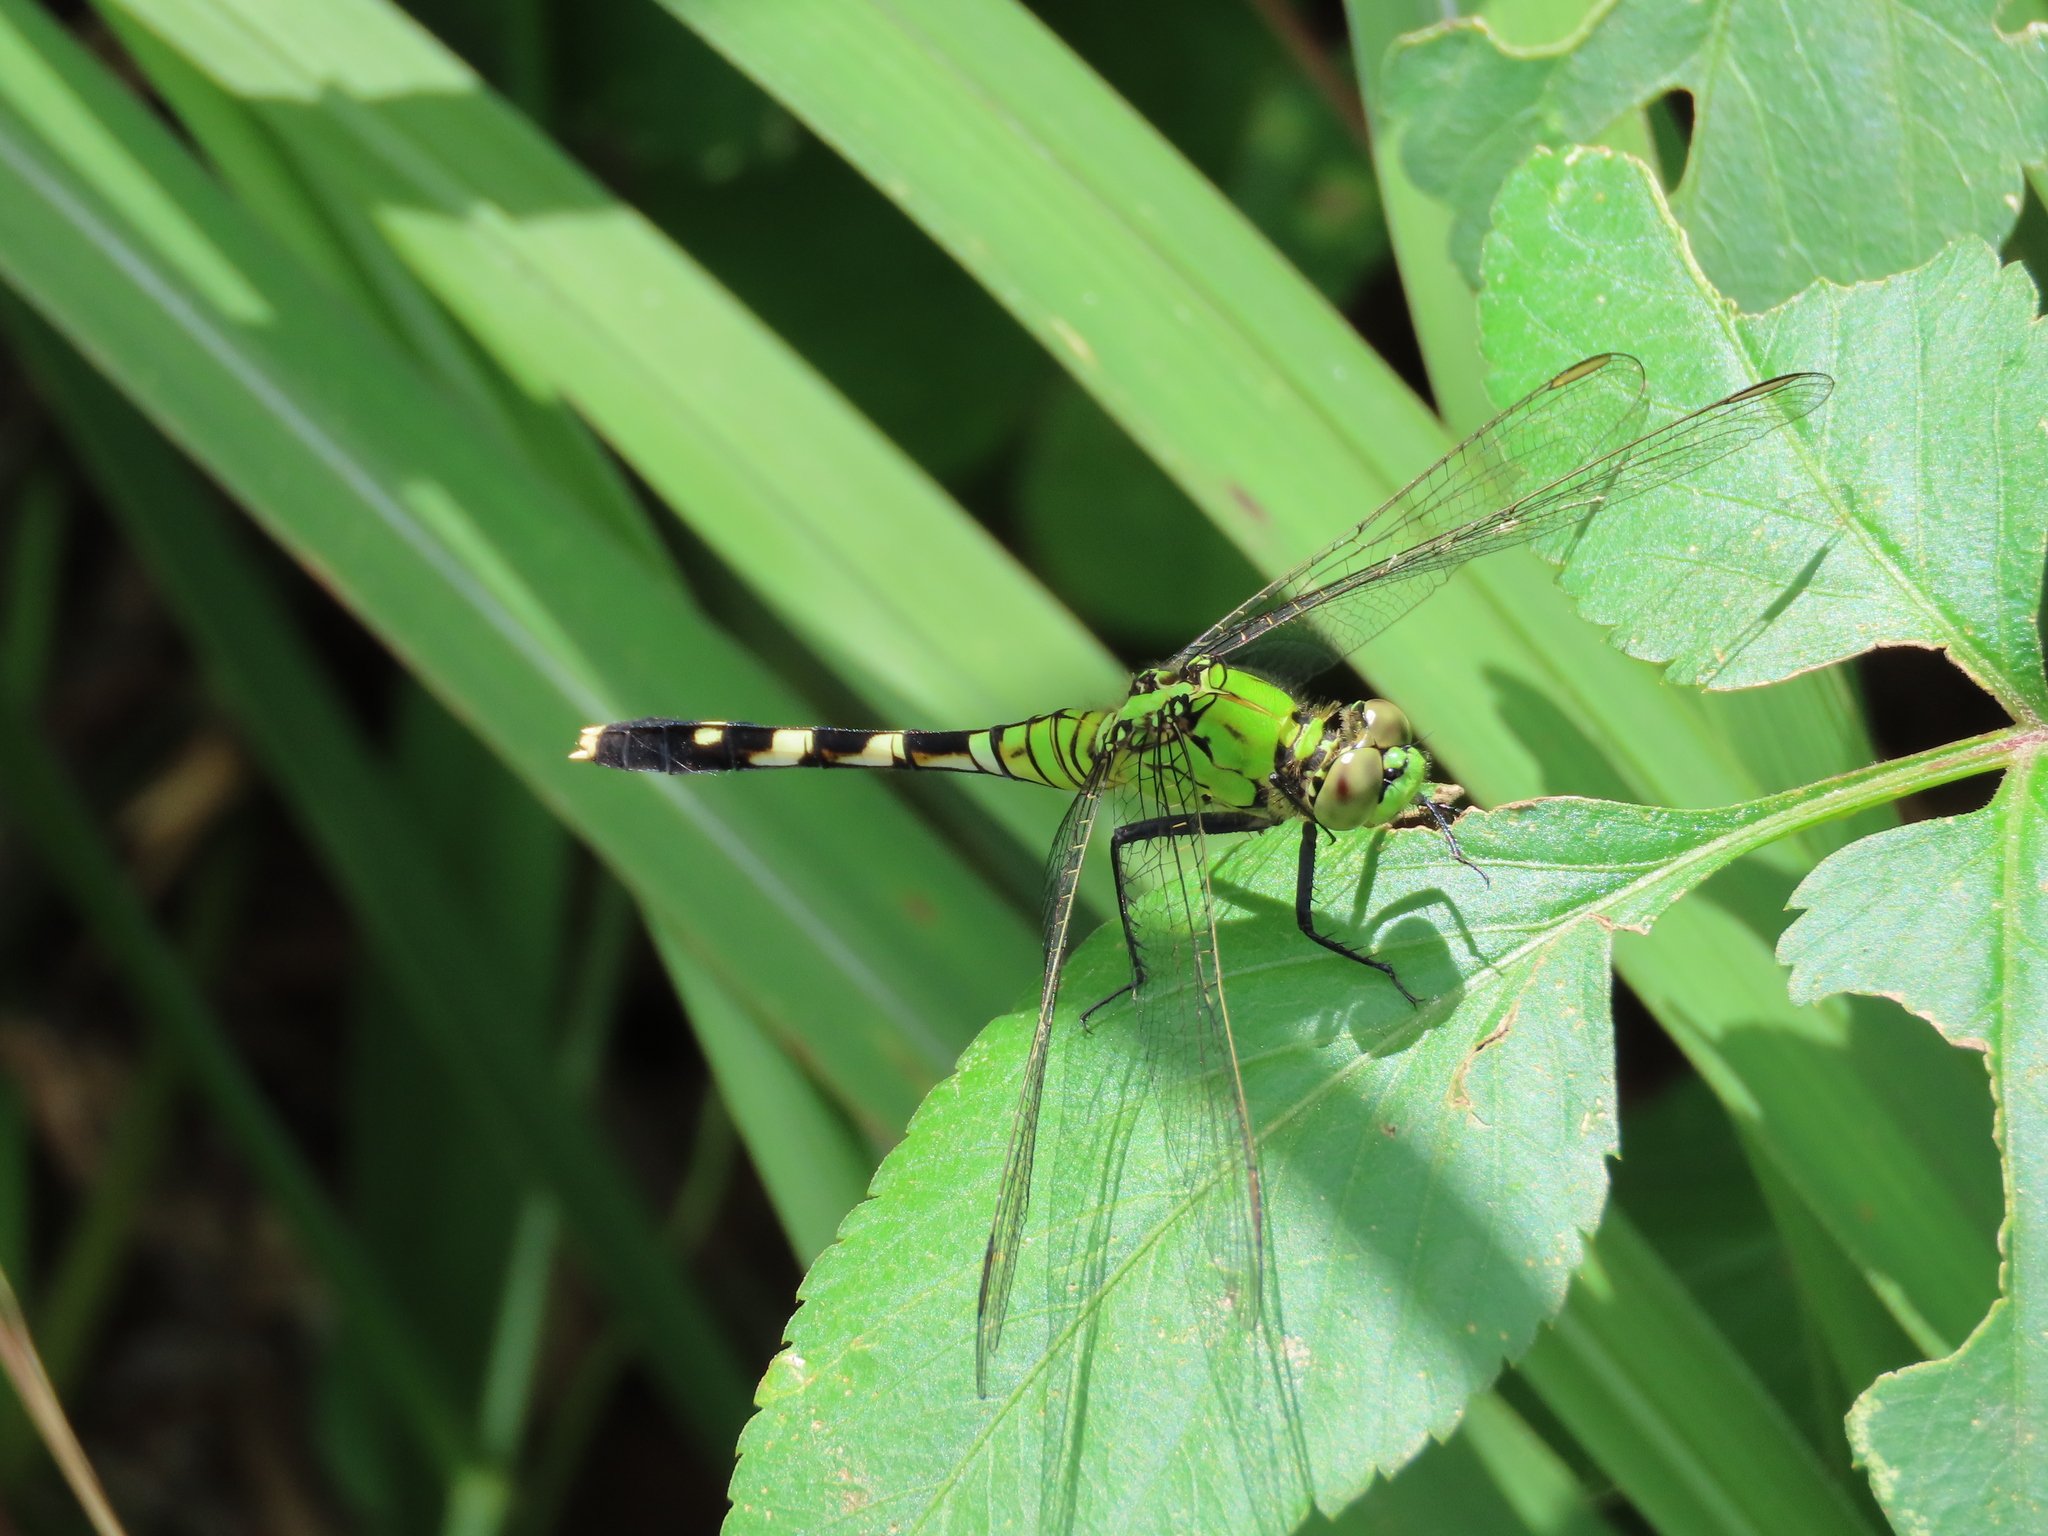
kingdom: Animalia
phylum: Arthropoda
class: Insecta
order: Odonata
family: Libellulidae
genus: Erythemis
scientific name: Erythemis simplicicollis
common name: Eastern pondhawk
